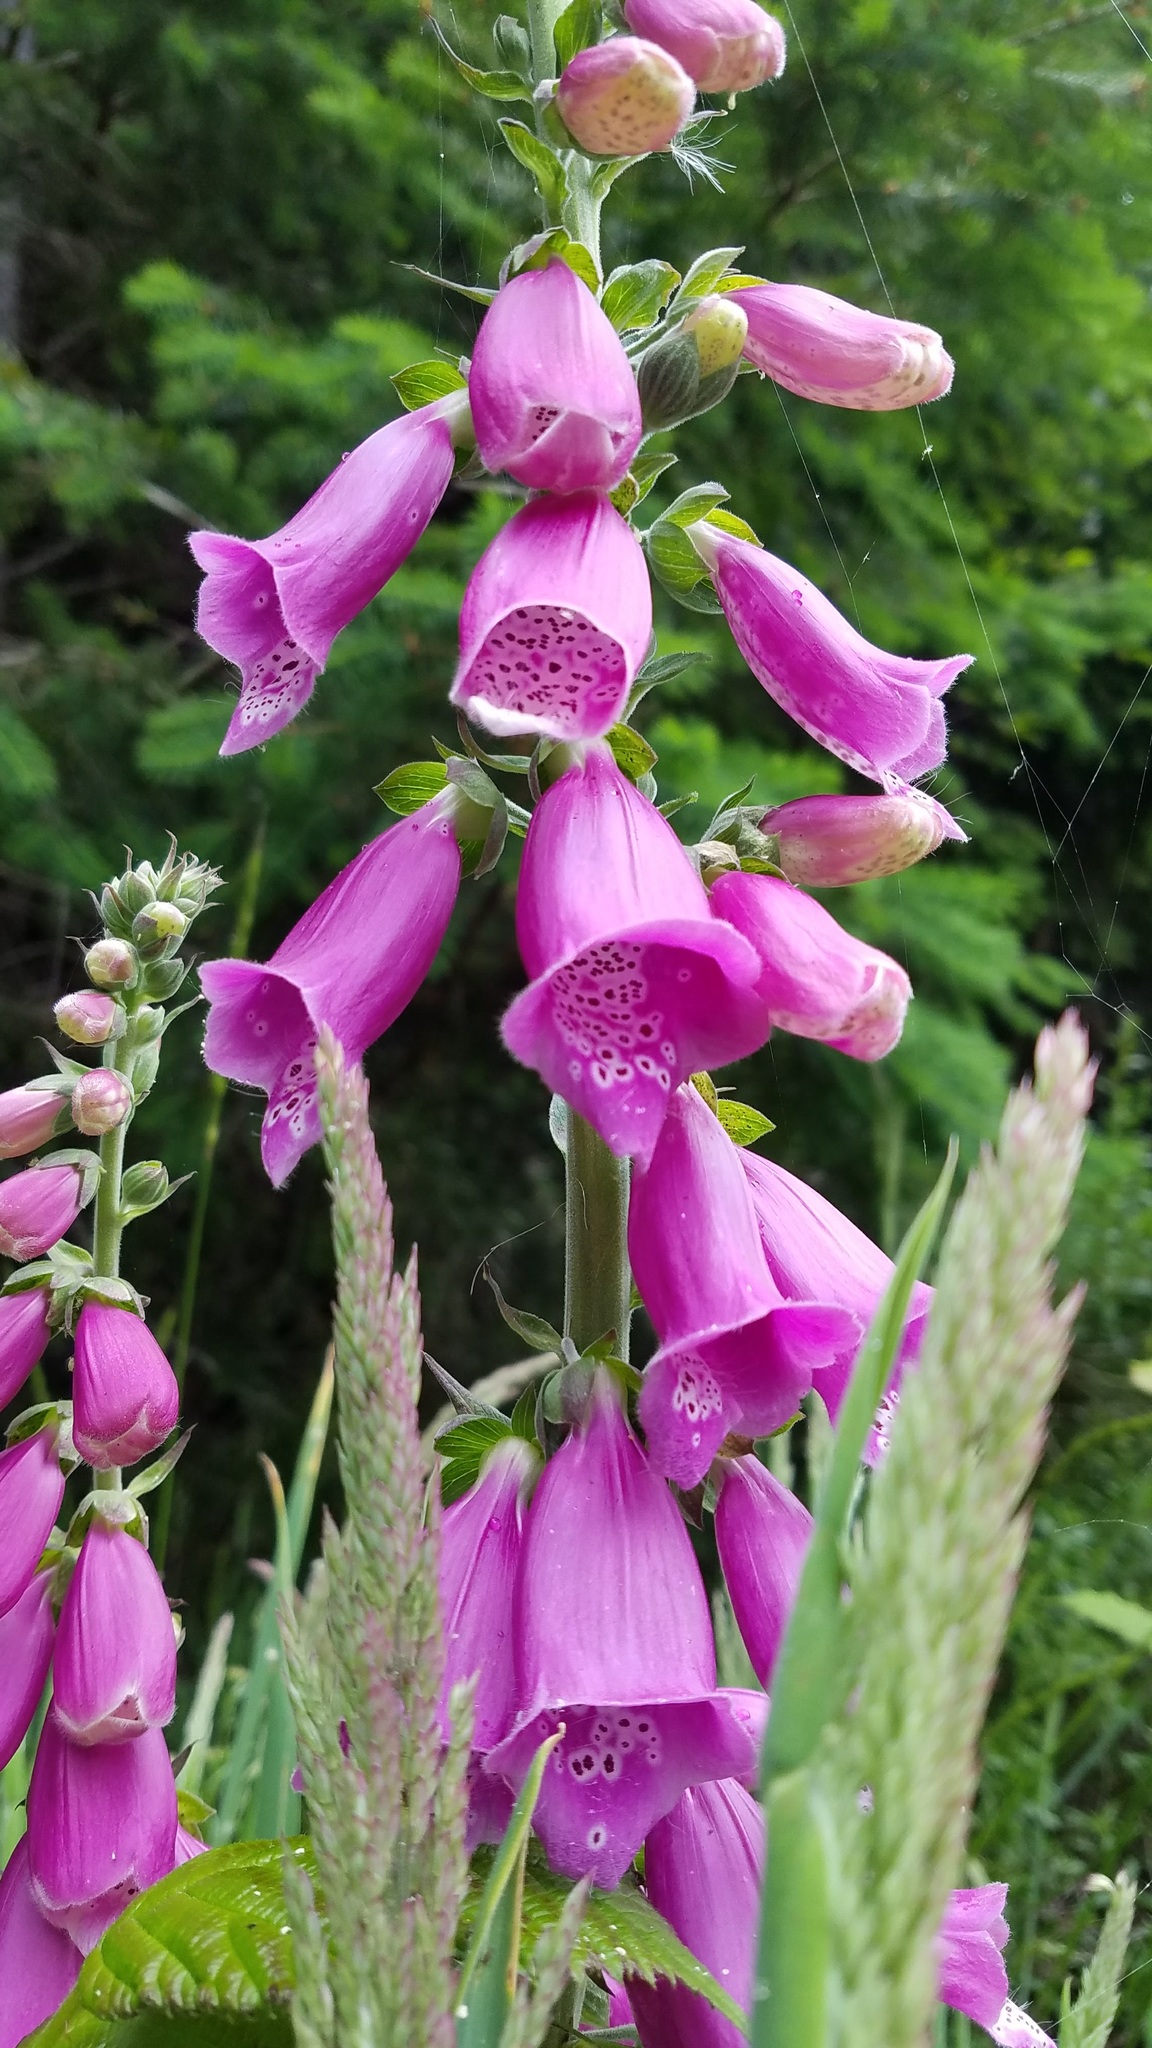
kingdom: Plantae
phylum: Tracheophyta
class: Magnoliopsida
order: Lamiales
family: Plantaginaceae
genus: Digitalis
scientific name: Digitalis purpurea
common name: Foxglove
